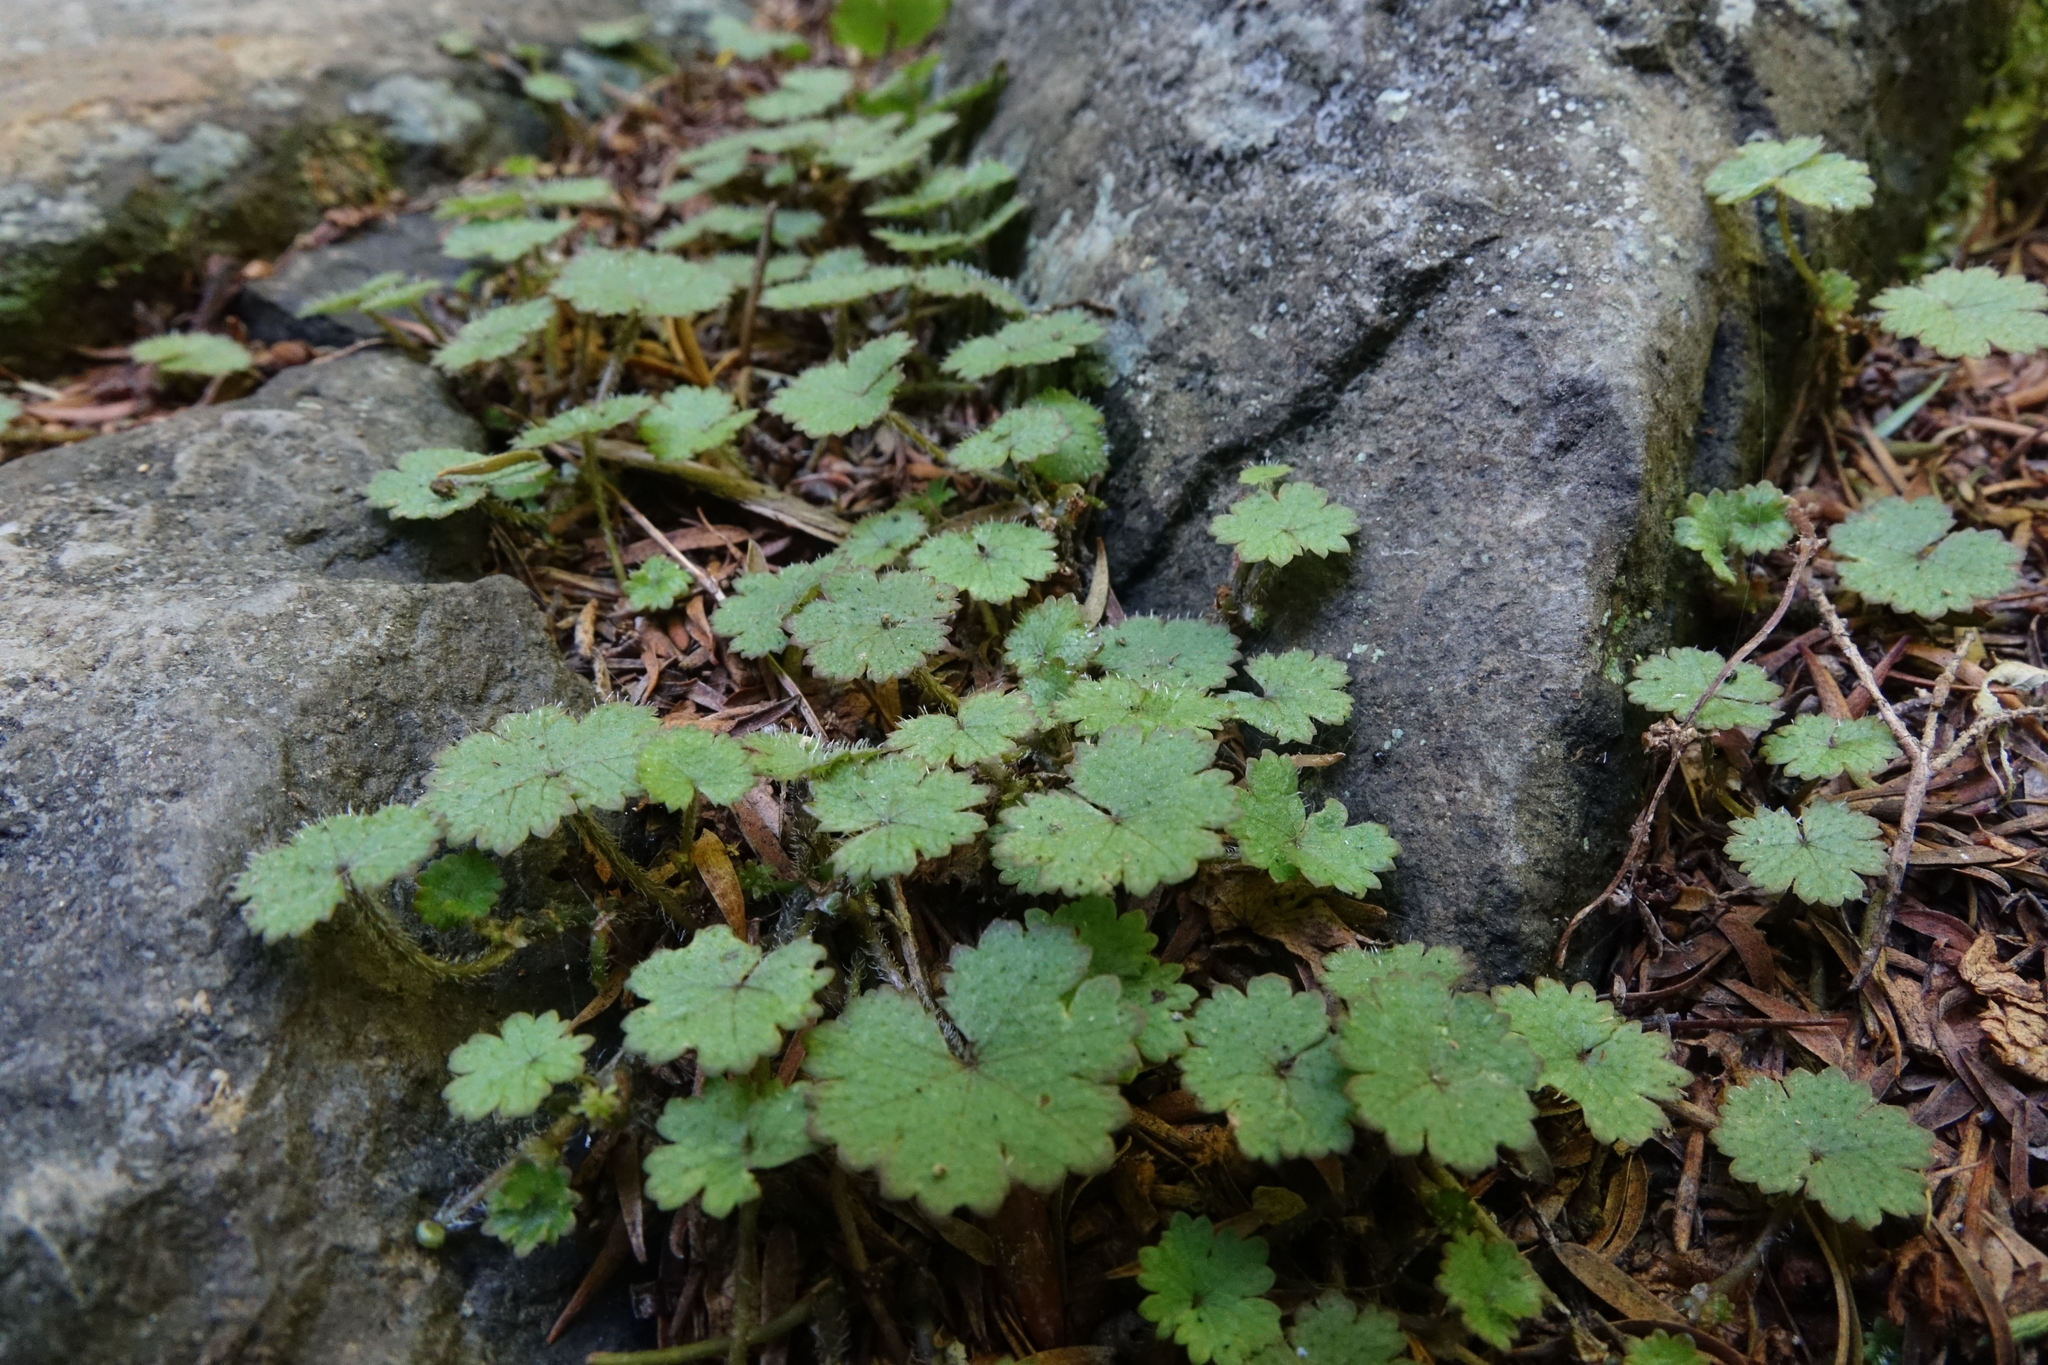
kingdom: Plantae
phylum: Tracheophyta
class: Magnoliopsida
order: Apiales
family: Araliaceae
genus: Hydrocotyle
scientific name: Hydrocotyle moschata
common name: Hairy pennywort
